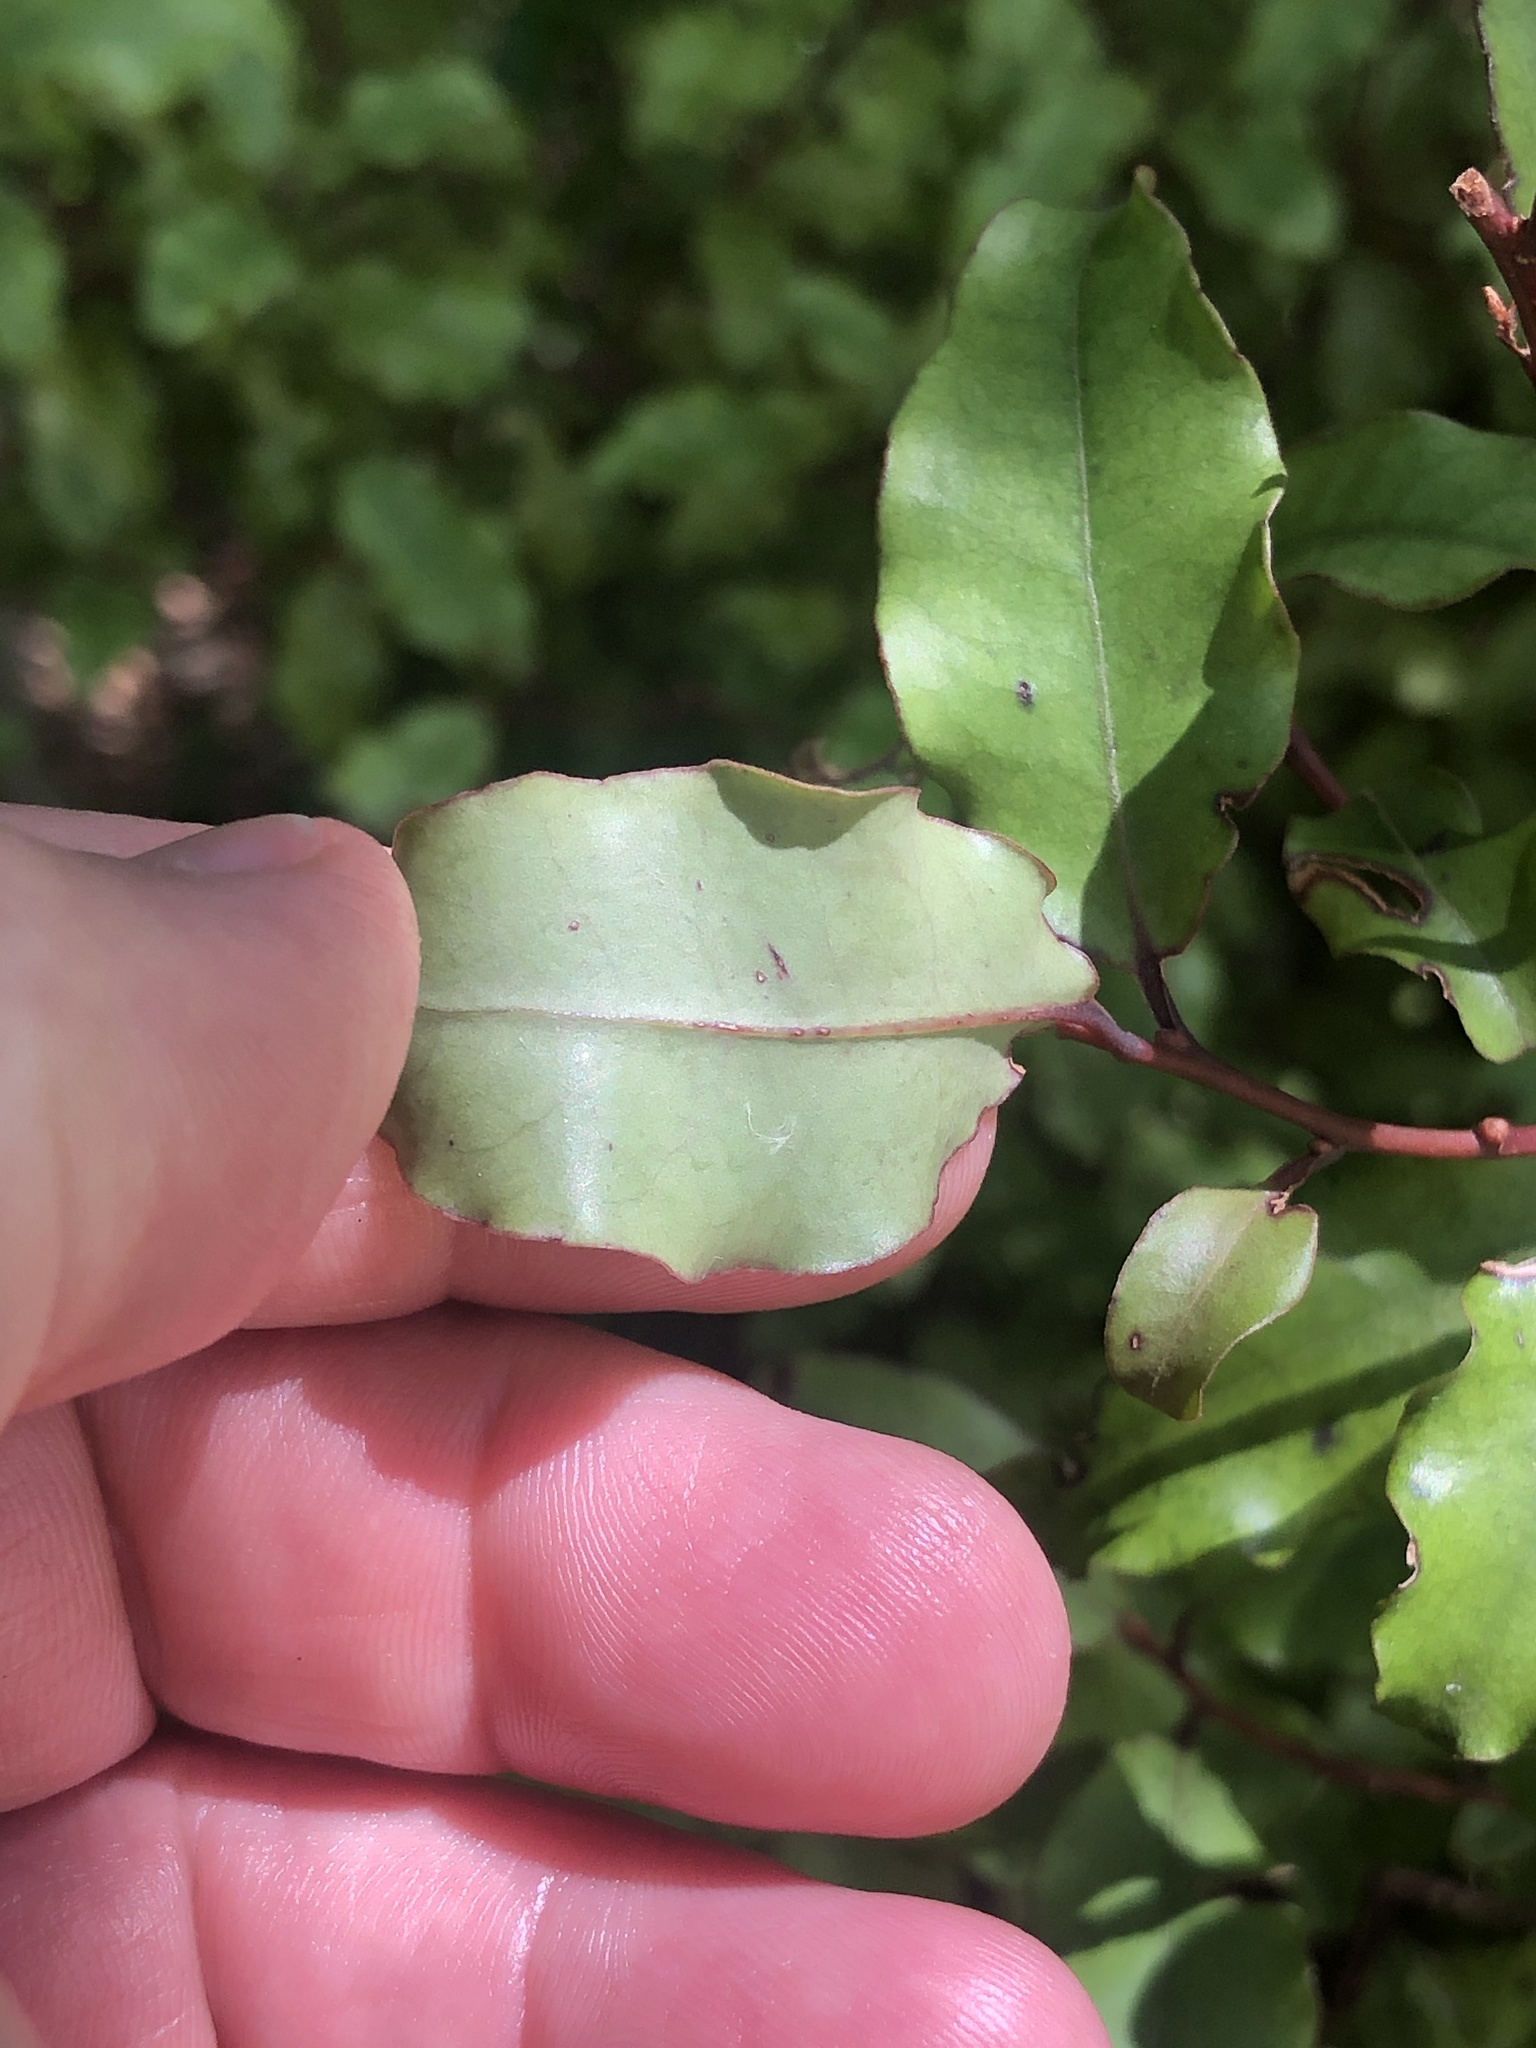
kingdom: Plantae
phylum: Tracheophyta
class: Magnoliopsida
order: Ericales
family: Primulaceae
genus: Myrsine
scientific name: Myrsine australis
